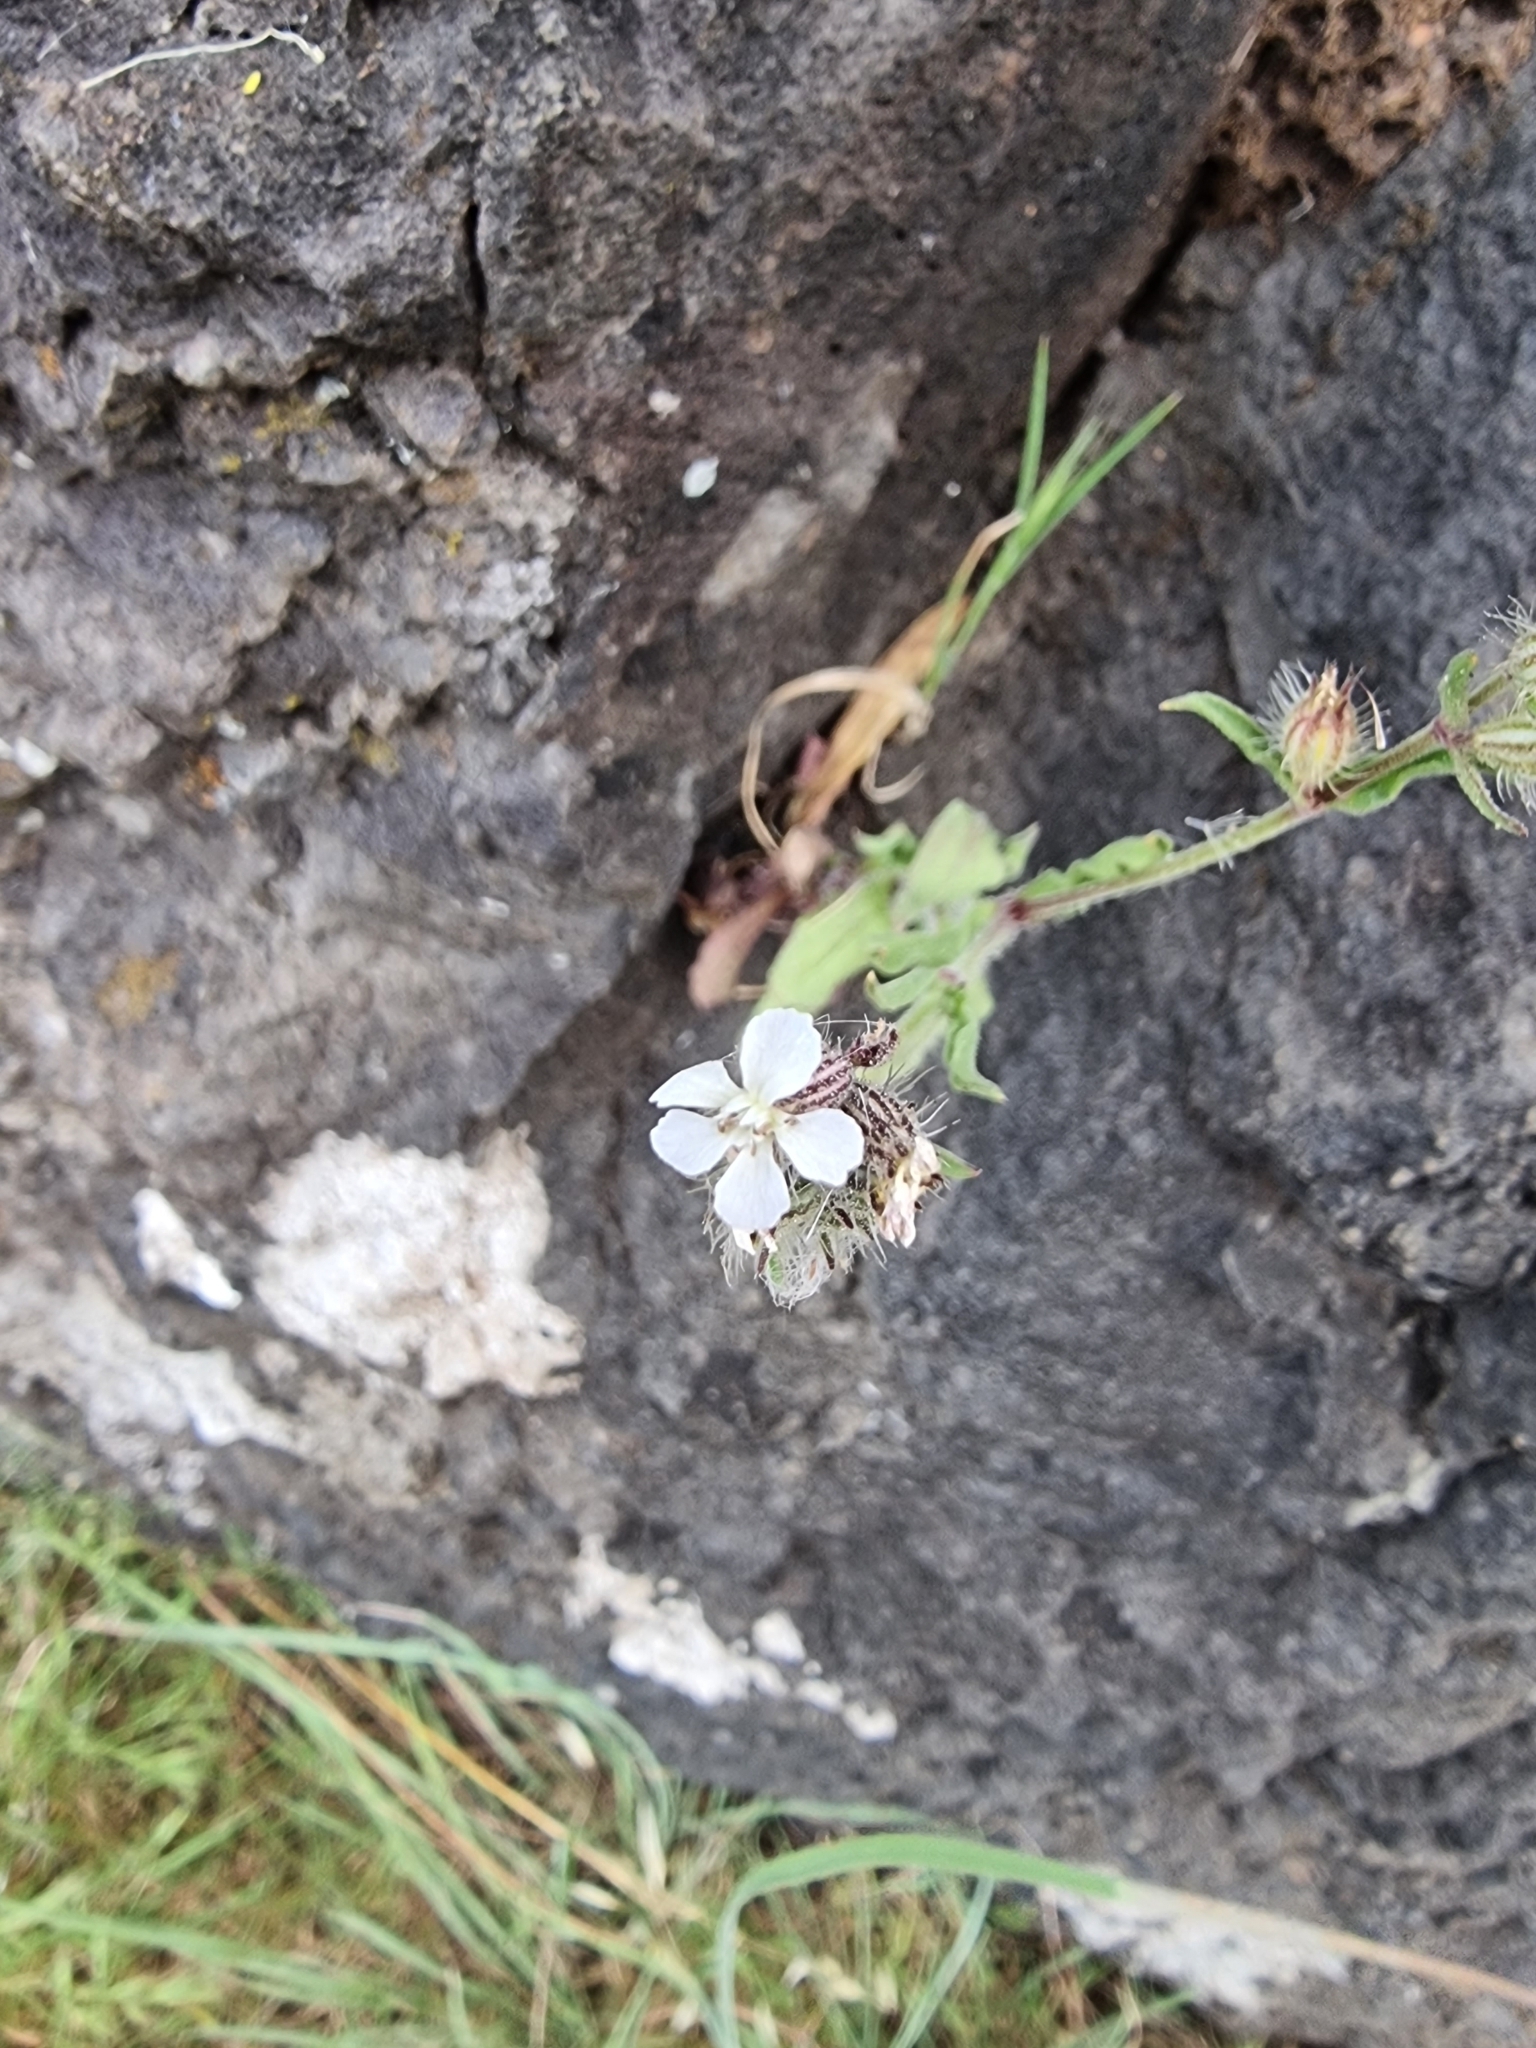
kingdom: Plantae
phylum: Tracheophyta
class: Magnoliopsida
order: Caryophyllales
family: Caryophyllaceae
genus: Silene
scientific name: Silene gallica
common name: Small-flowered catchfly
